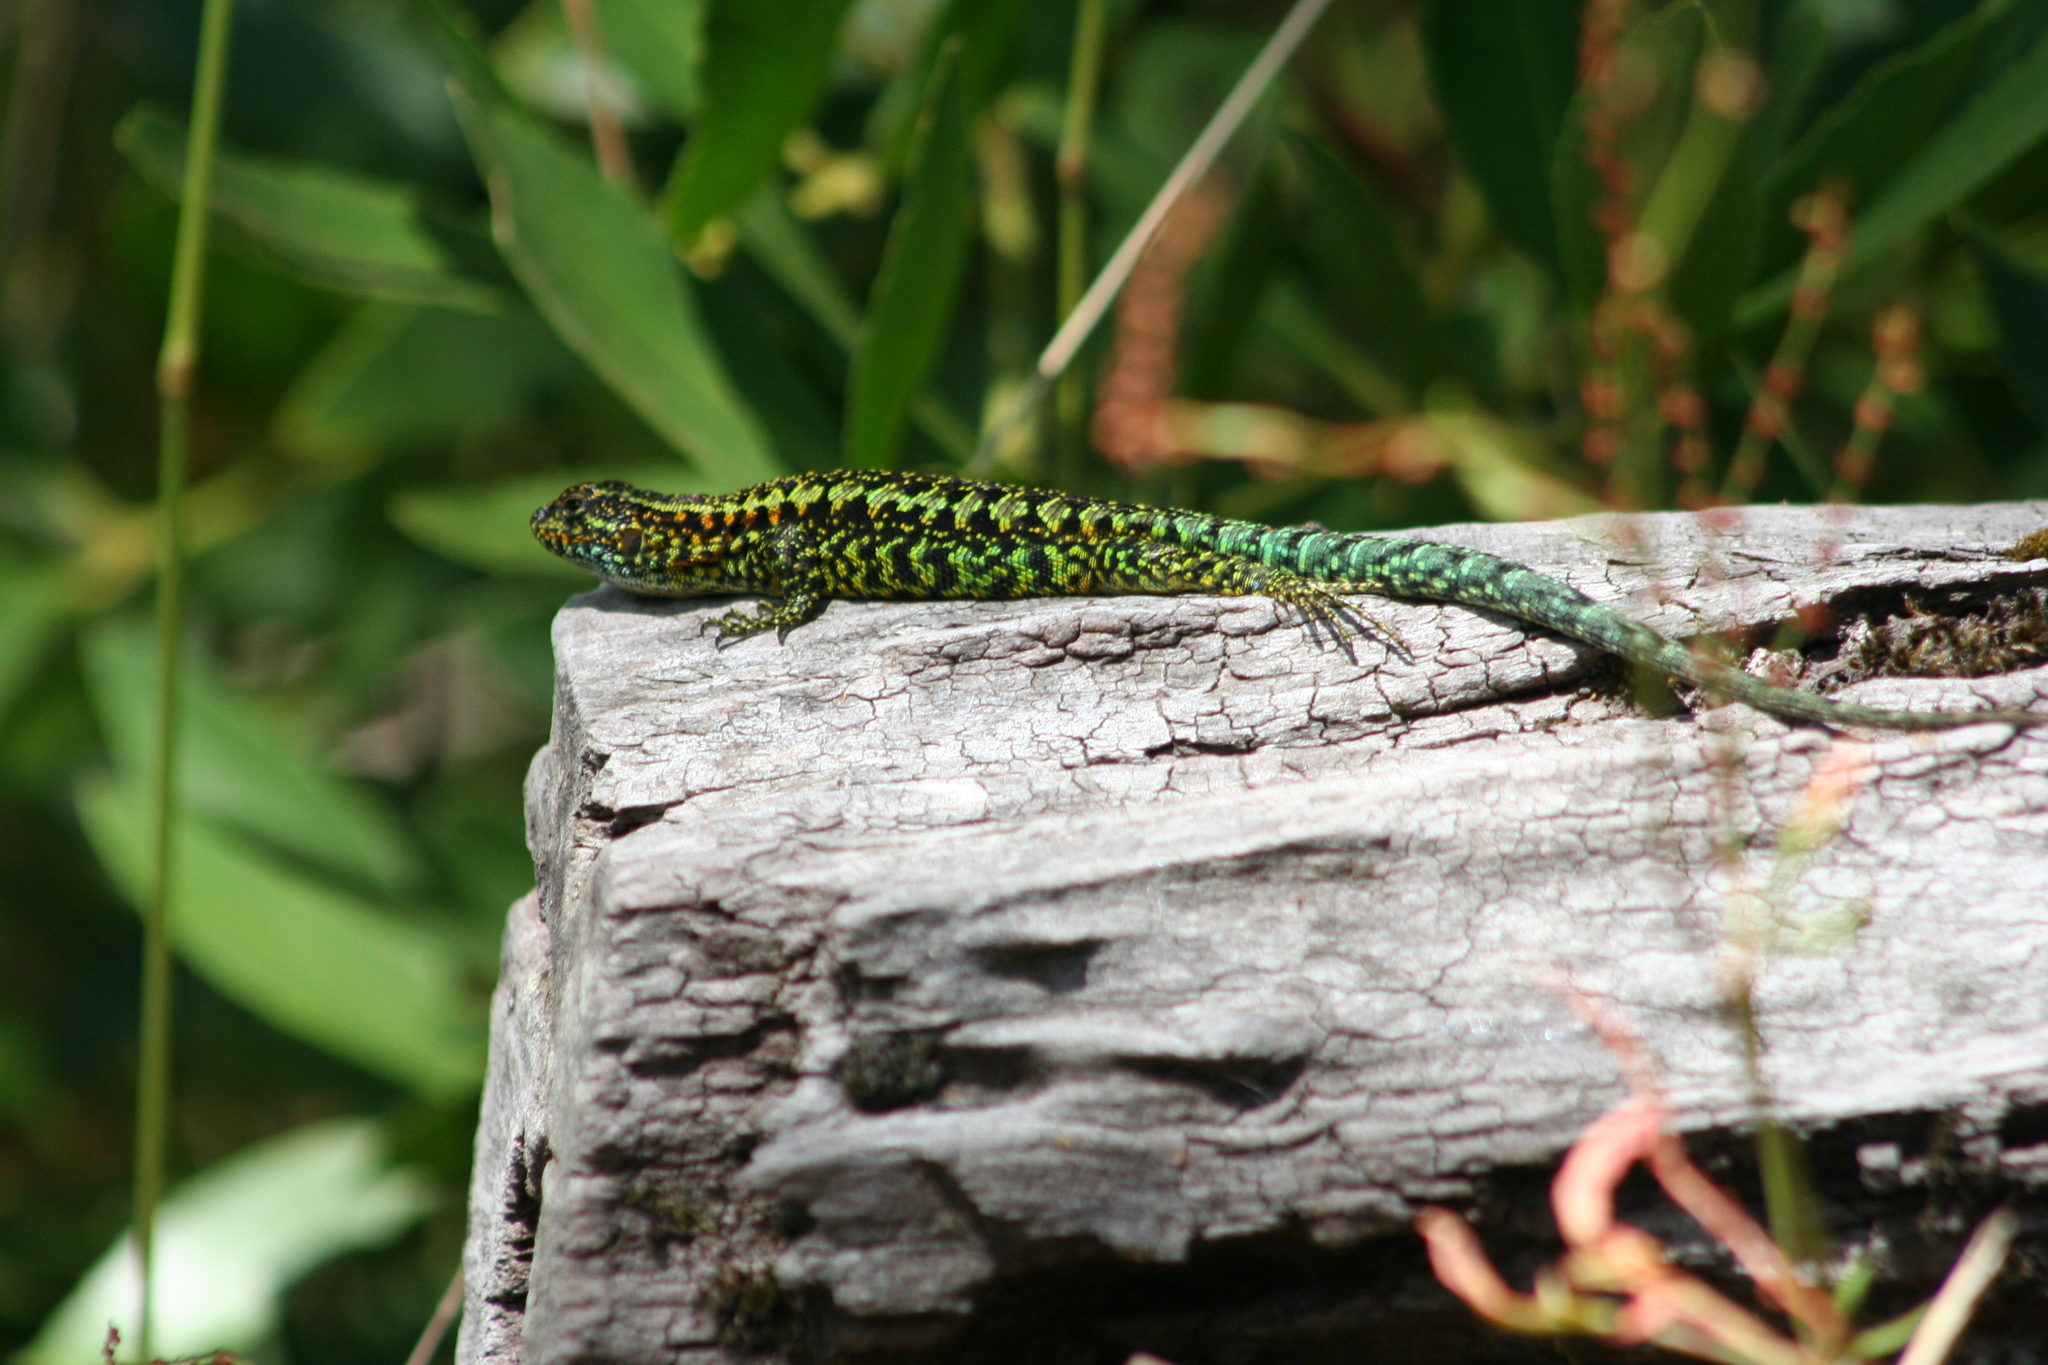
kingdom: Animalia
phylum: Chordata
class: Squamata
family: Liolaemidae
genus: Liolaemus
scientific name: Liolaemus pictus
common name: Painted tree iguana
